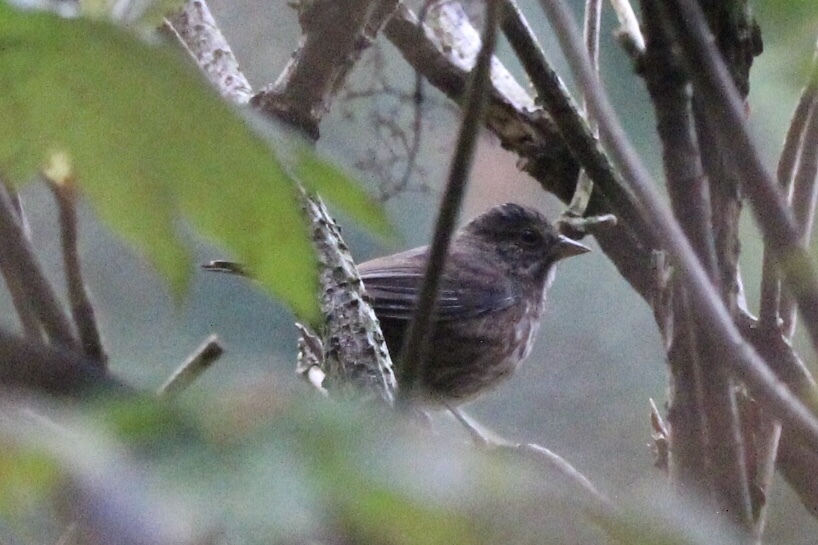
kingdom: Animalia
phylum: Chordata
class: Aves
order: Passeriformes
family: Passerellidae
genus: Melospiza
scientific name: Melospiza melodia
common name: Song sparrow
